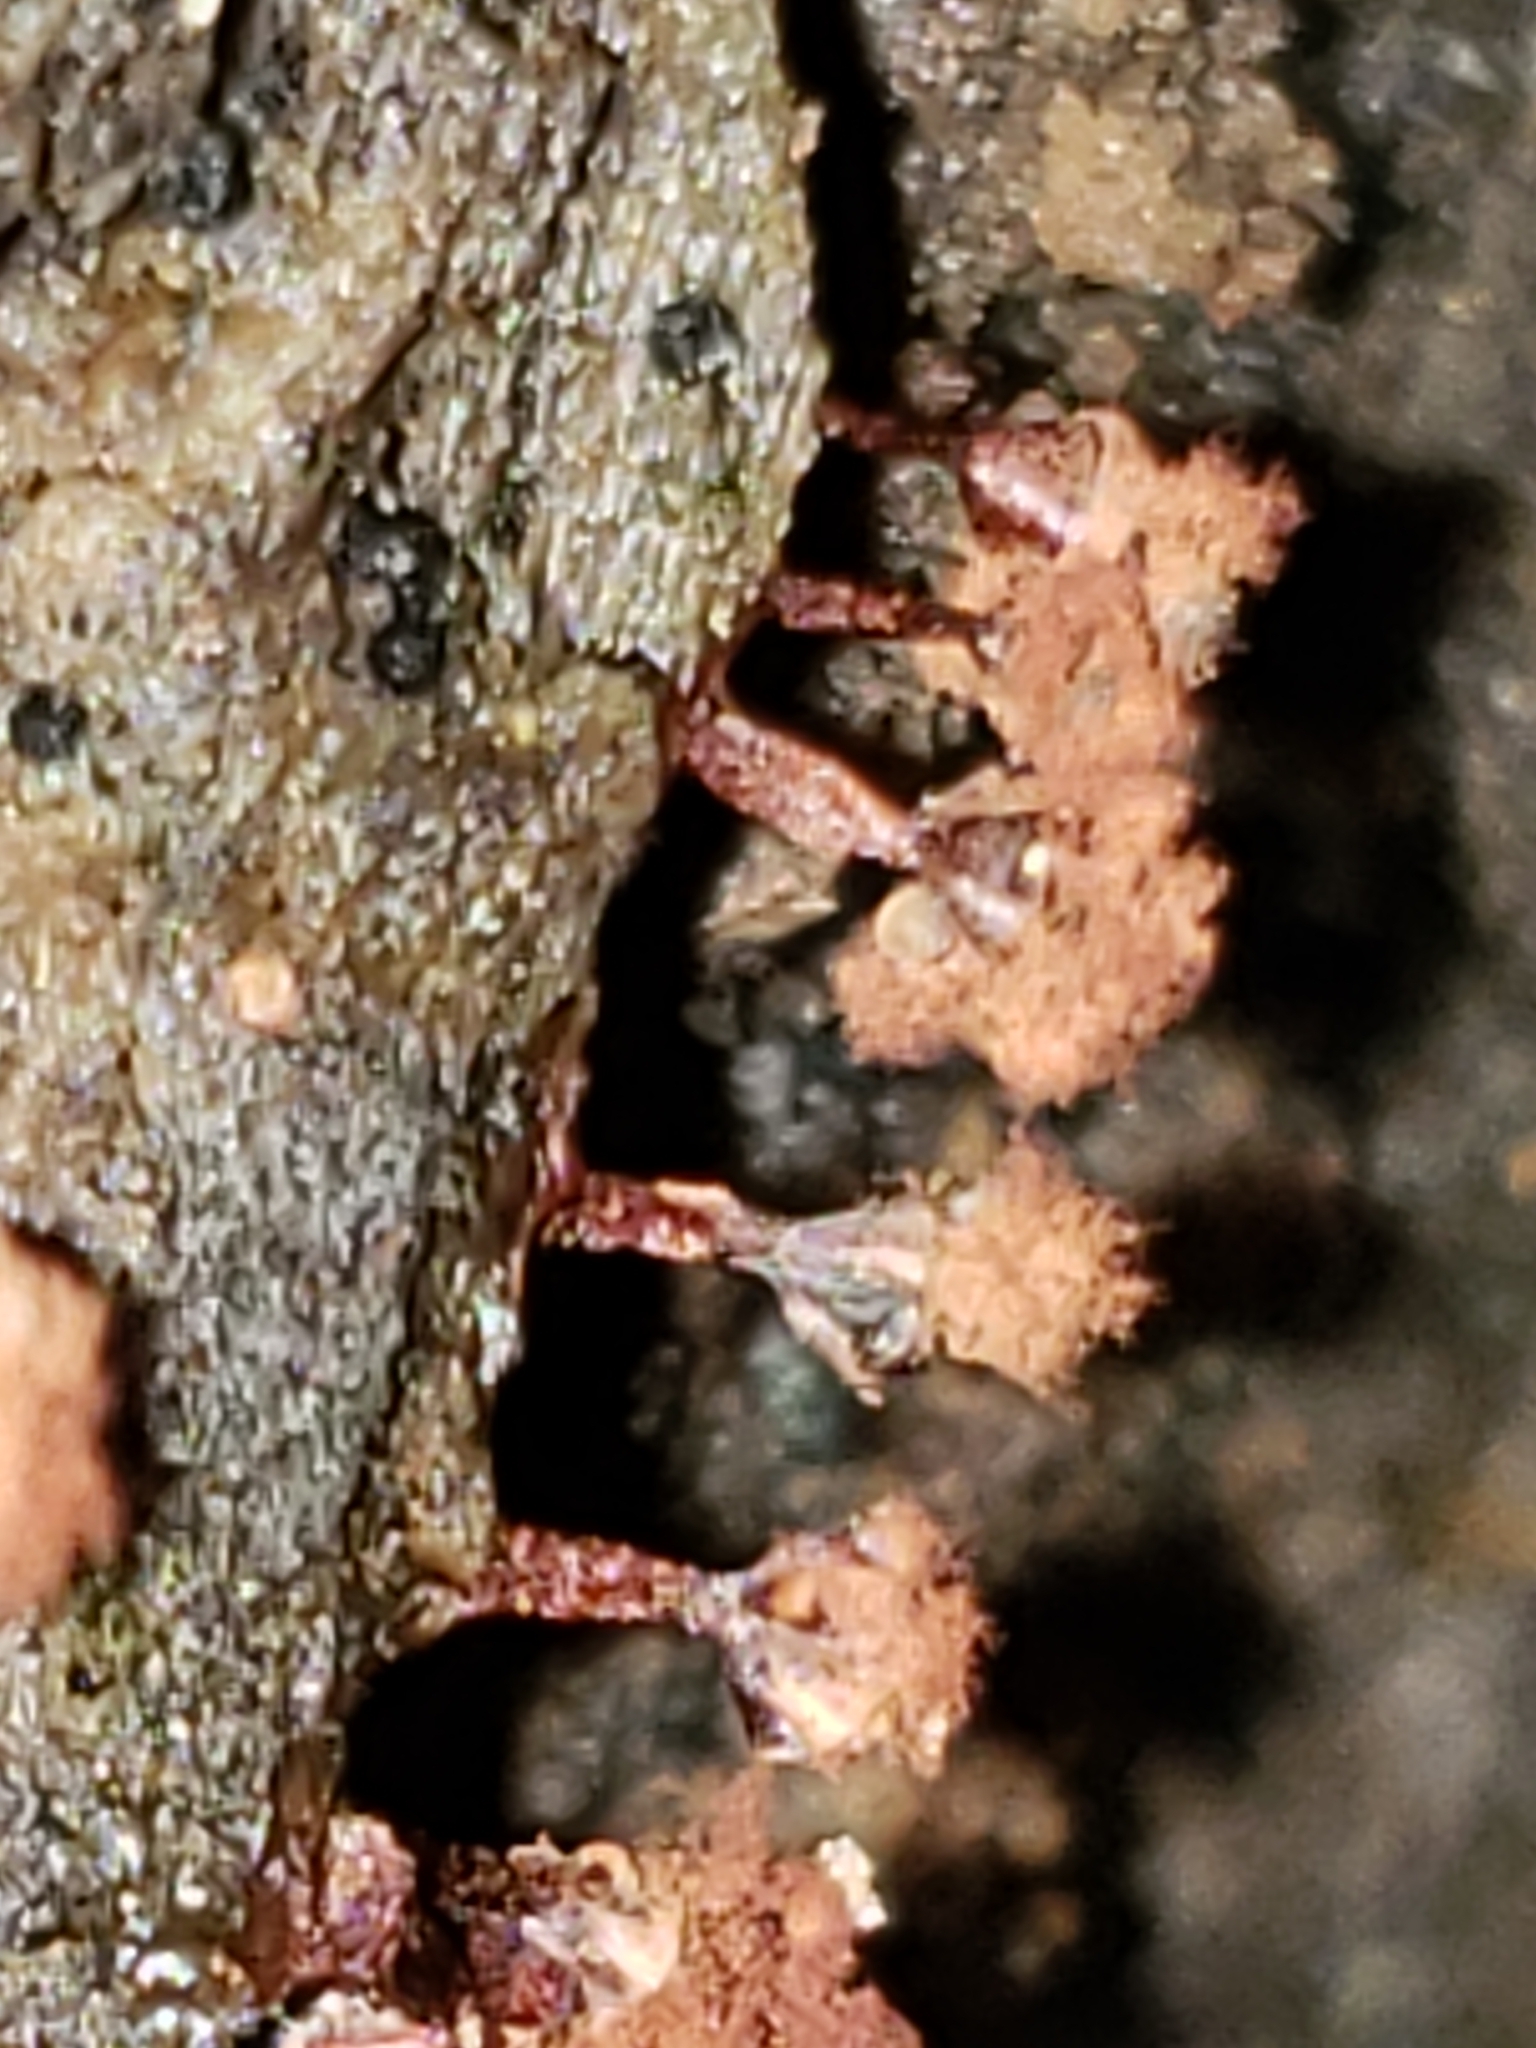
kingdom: Protozoa
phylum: Mycetozoa
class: Myxomycetes
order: Trichiales
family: Trichiaceae
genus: Metatrichia
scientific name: Metatrichia vesparia
